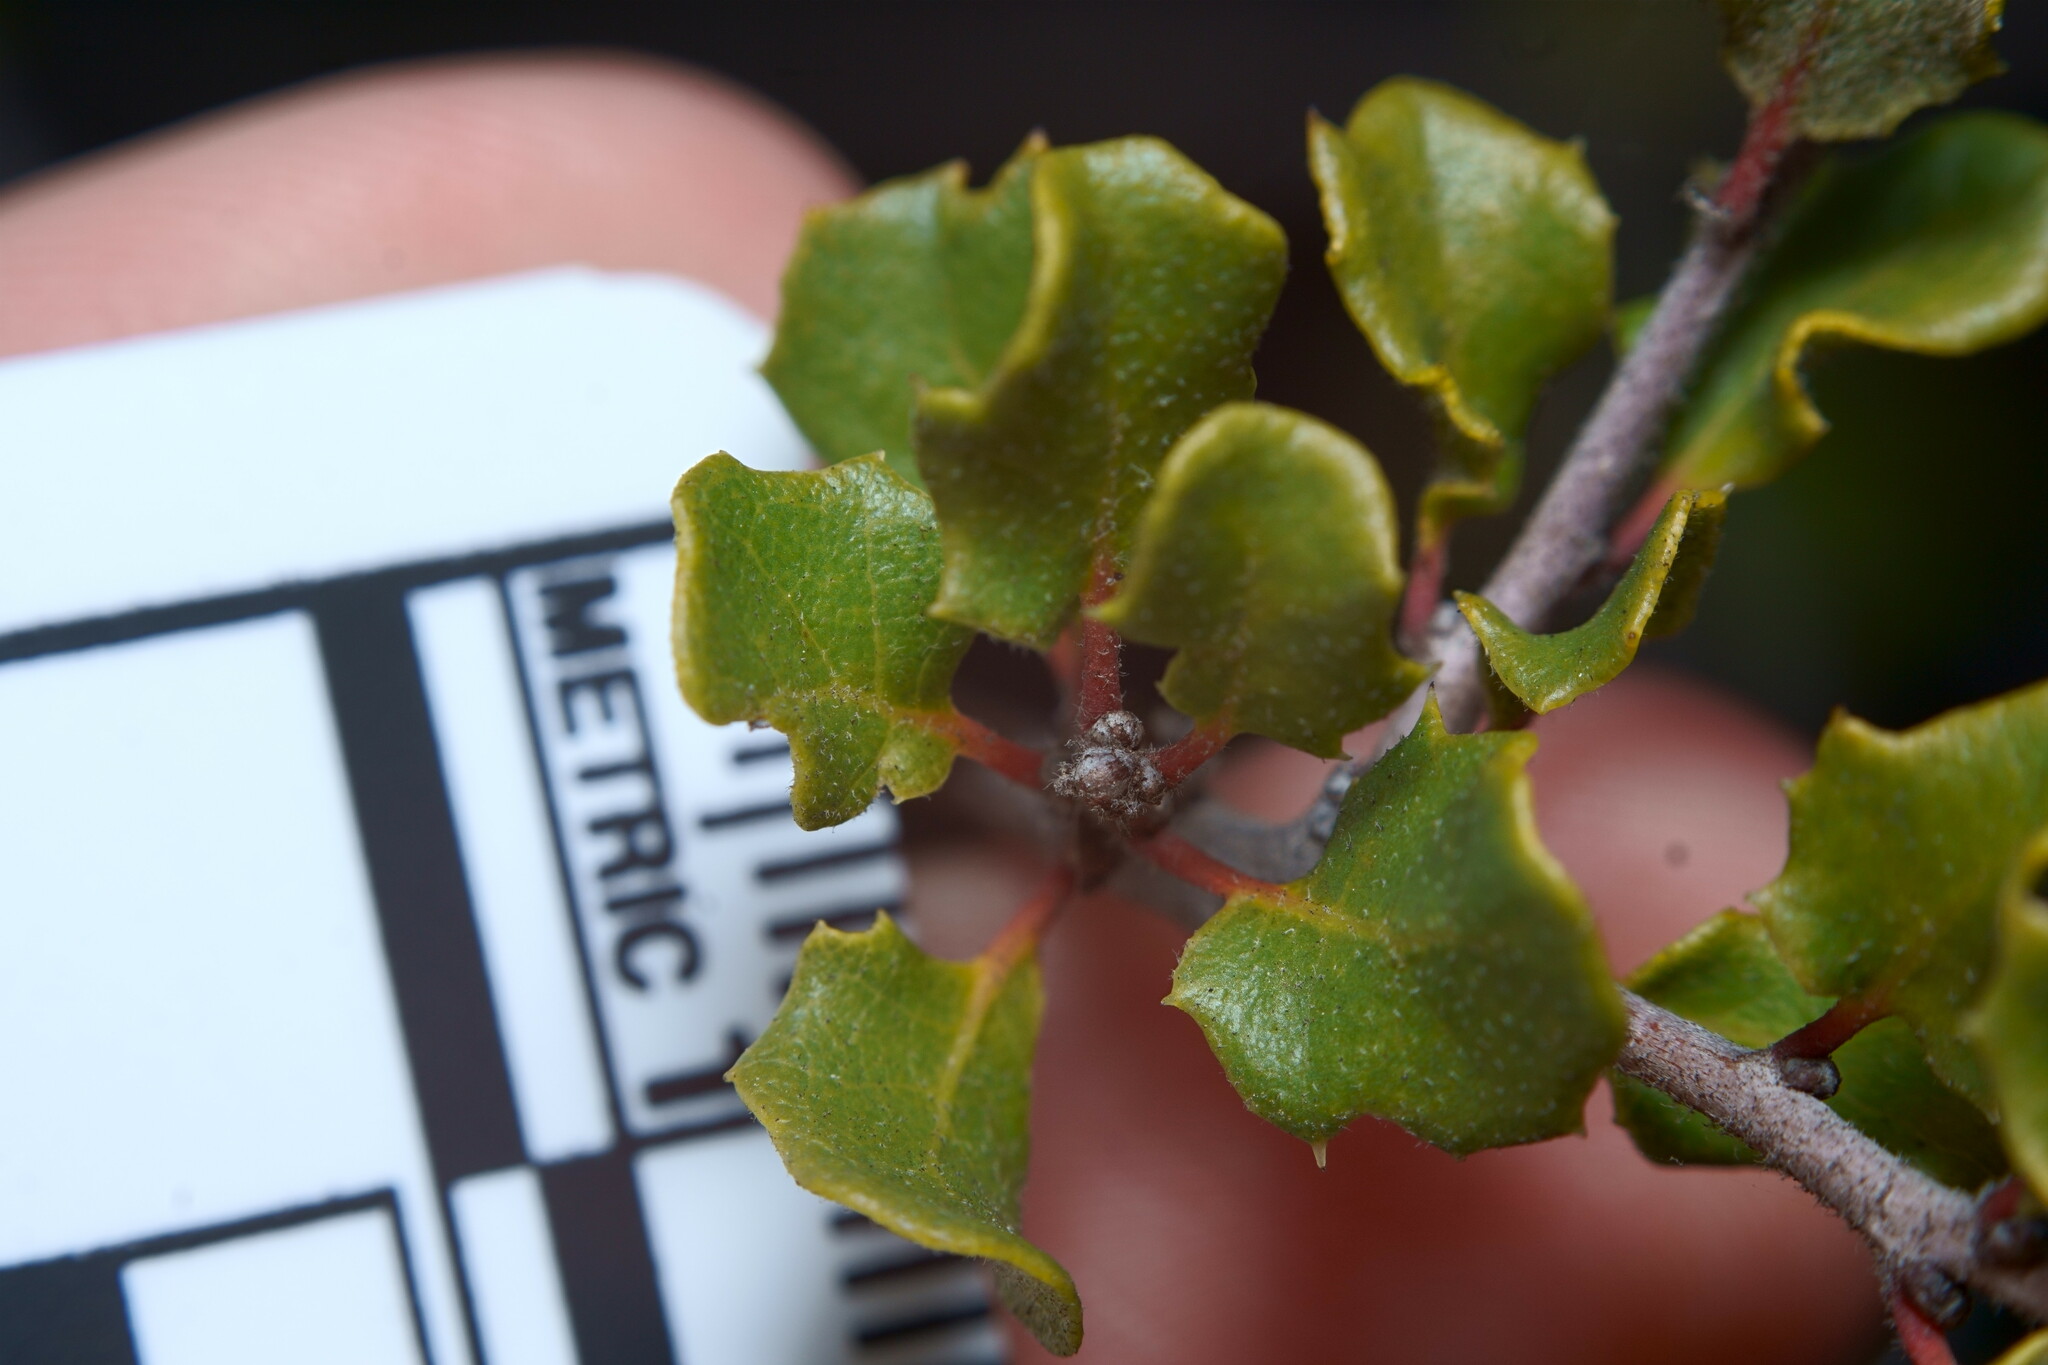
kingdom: Plantae
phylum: Tracheophyta
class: Magnoliopsida
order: Fagales
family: Fagaceae
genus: Quercus
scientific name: Quercus dumosa
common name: Coastal sage scrub oak
